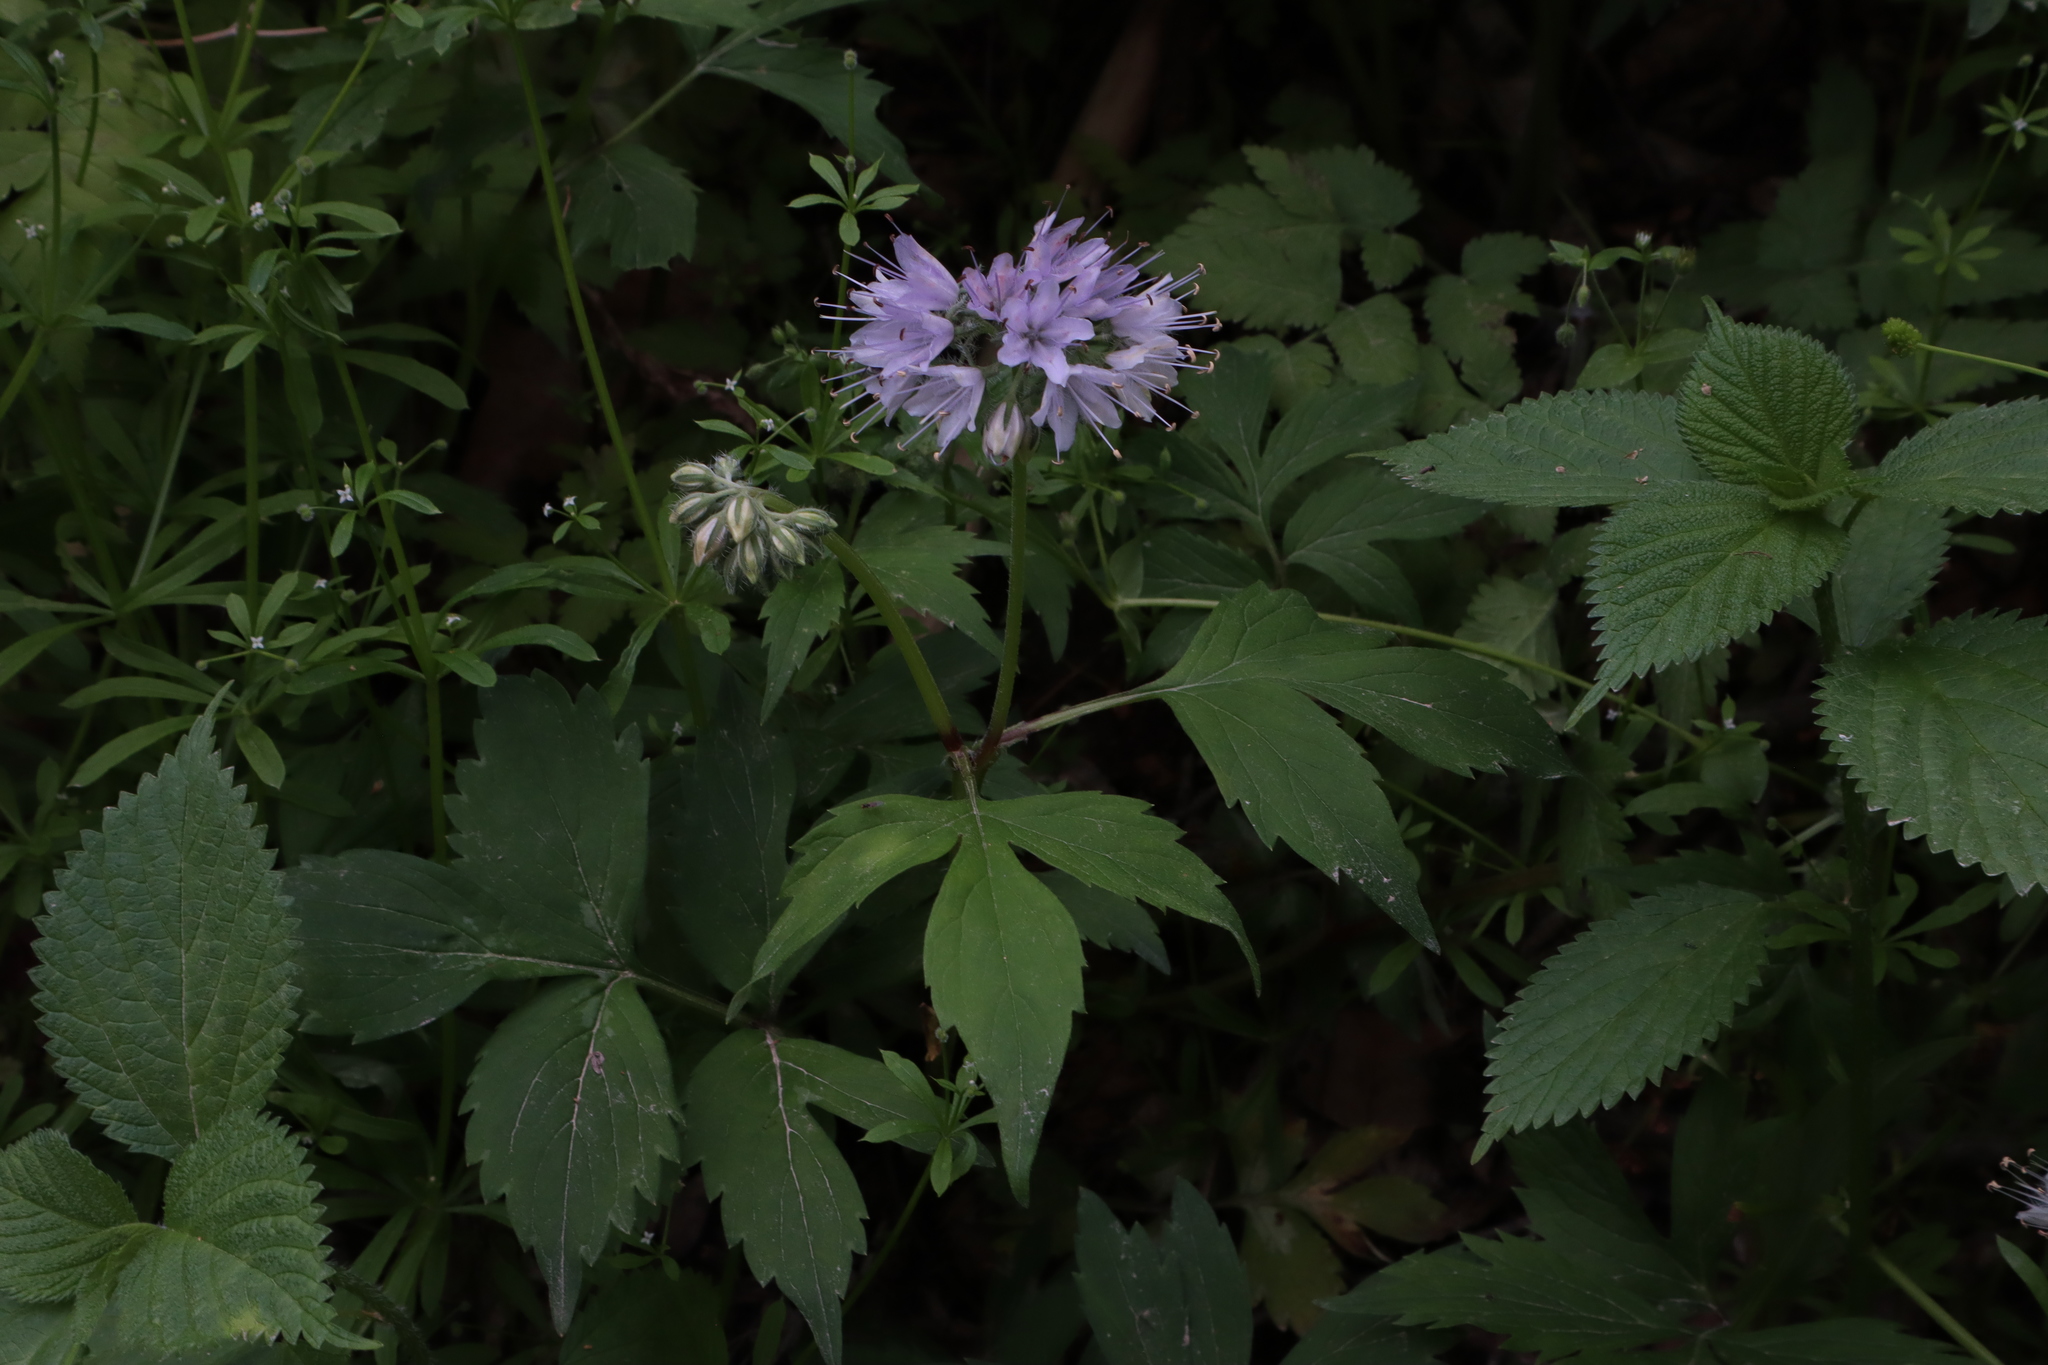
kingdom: Plantae
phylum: Tracheophyta
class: Magnoliopsida
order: Boraginales
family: Hydrophyllaceae
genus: Hydrophyllum
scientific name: Hydrophyllum virginianum
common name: Virginia waterleaf
